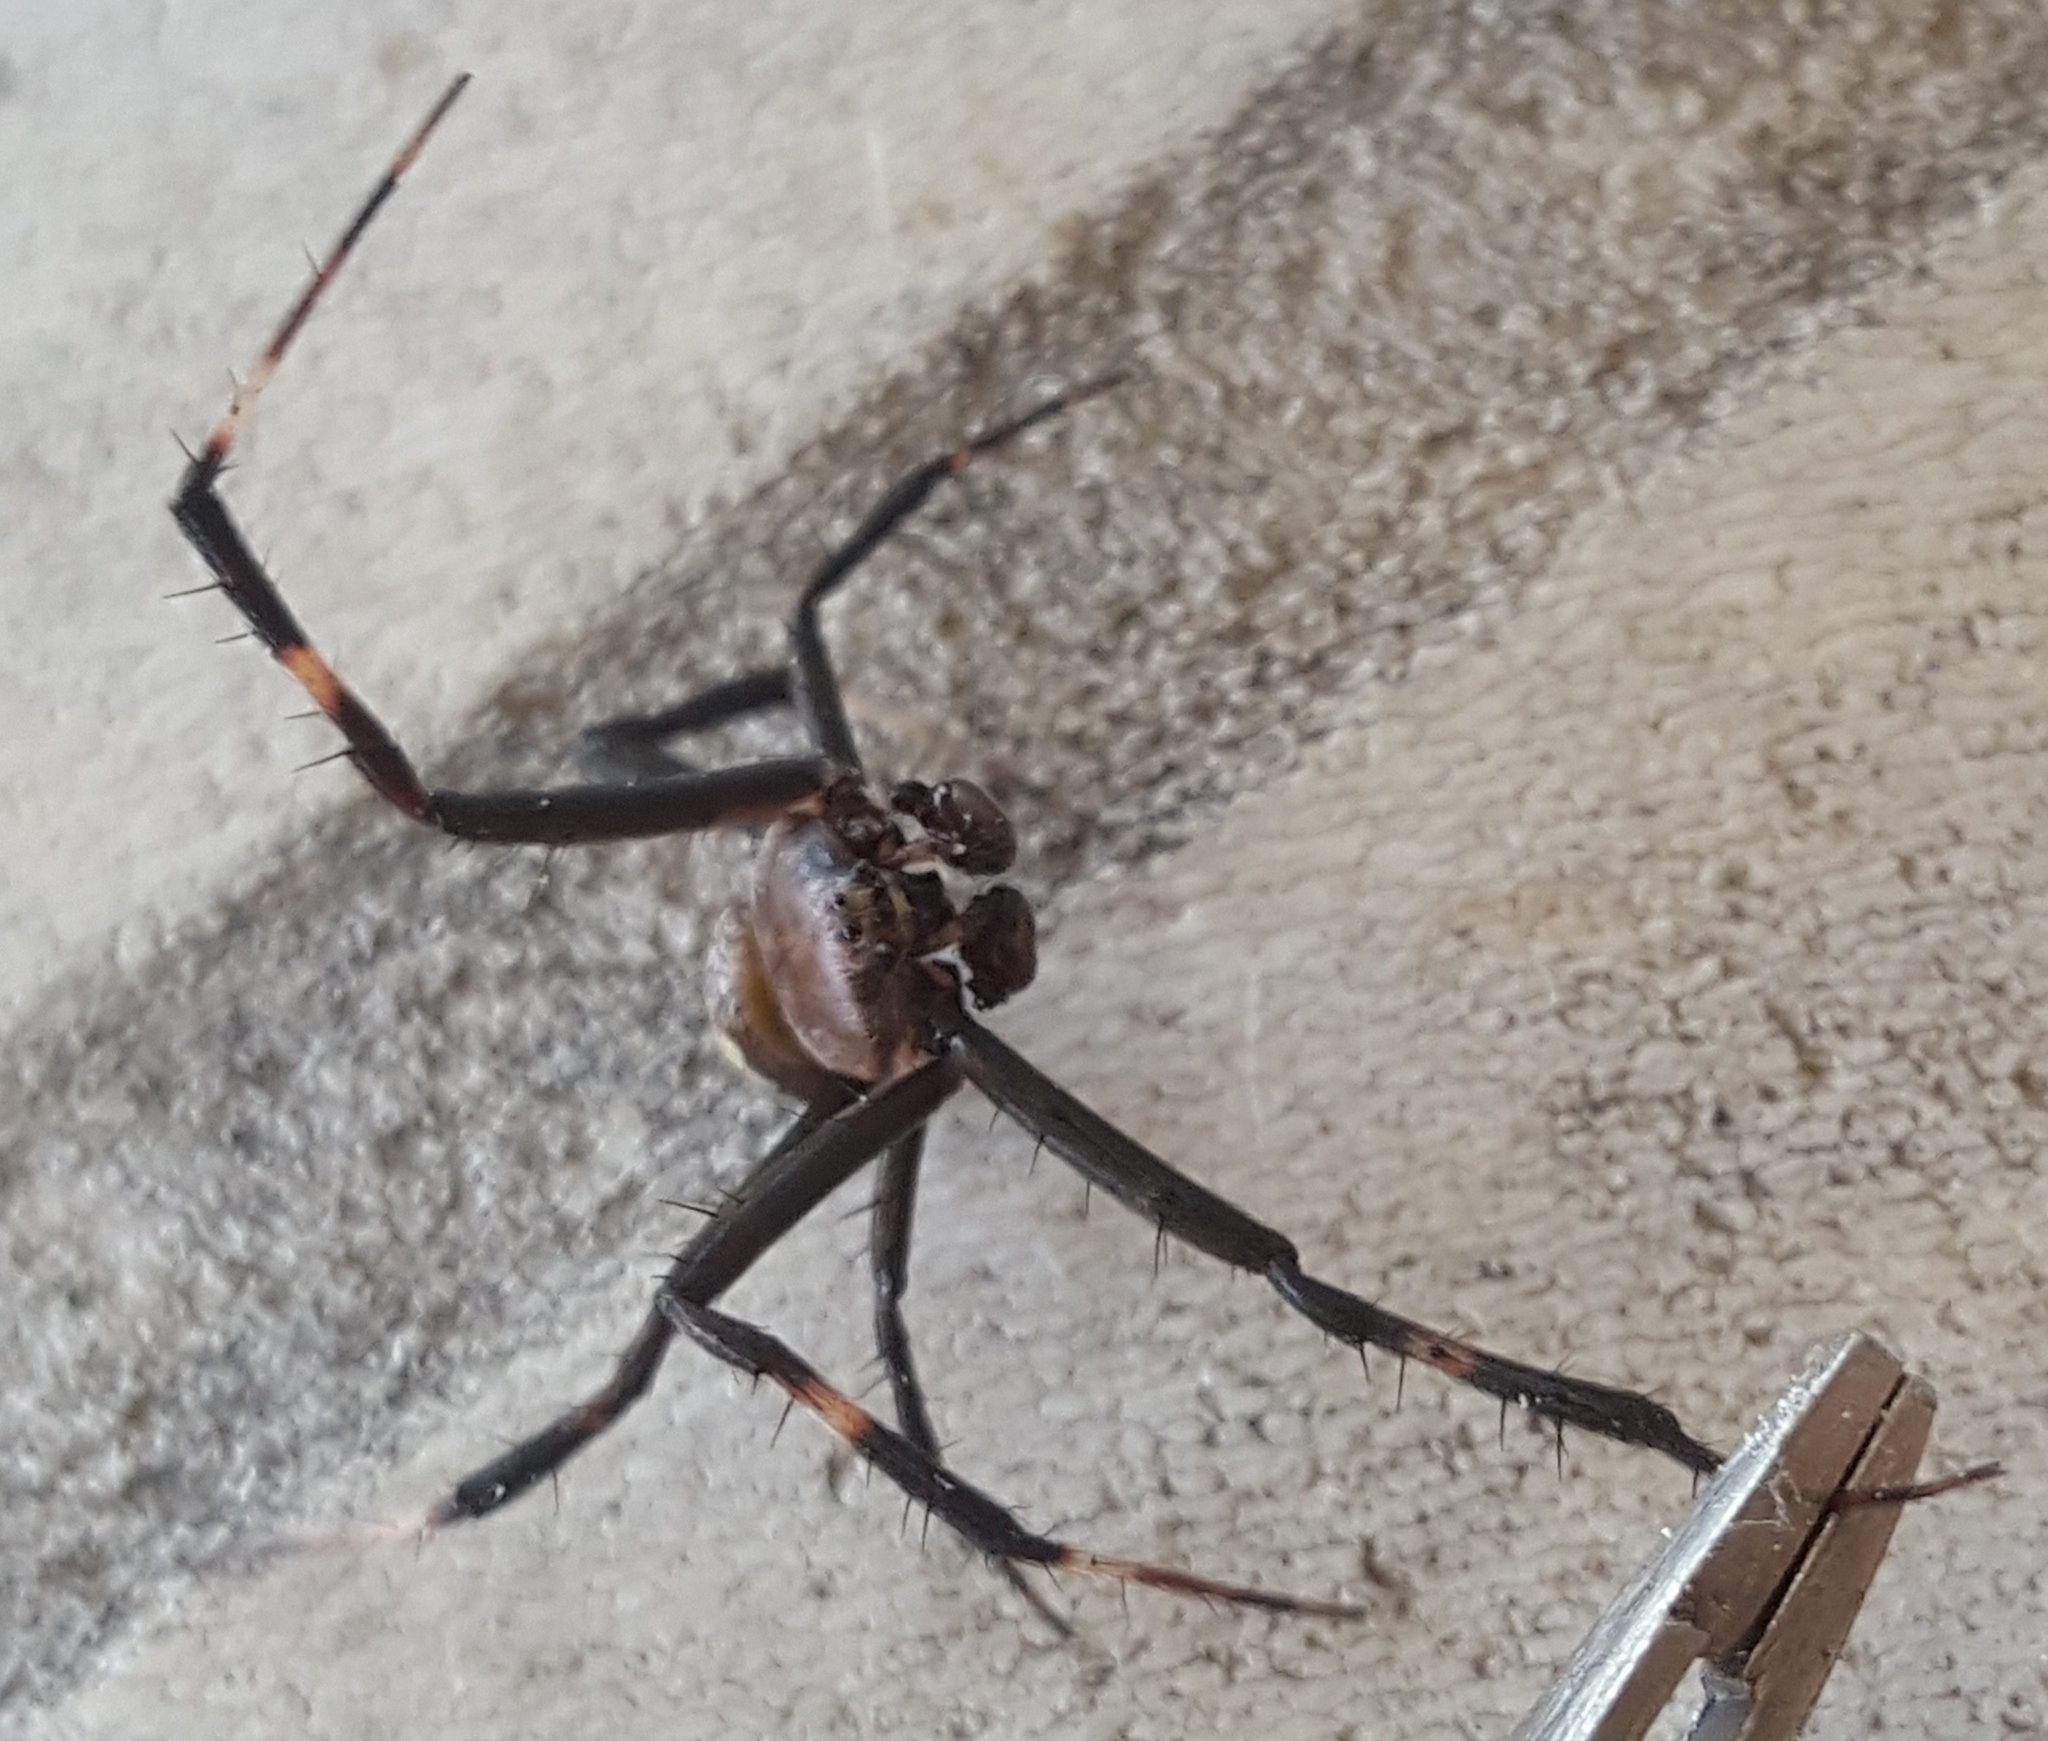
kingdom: Animalia
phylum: Arthropoda
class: Arachnida
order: Araneae
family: Araneidae
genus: Argiope
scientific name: Argiope appensa
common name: Garden spider
